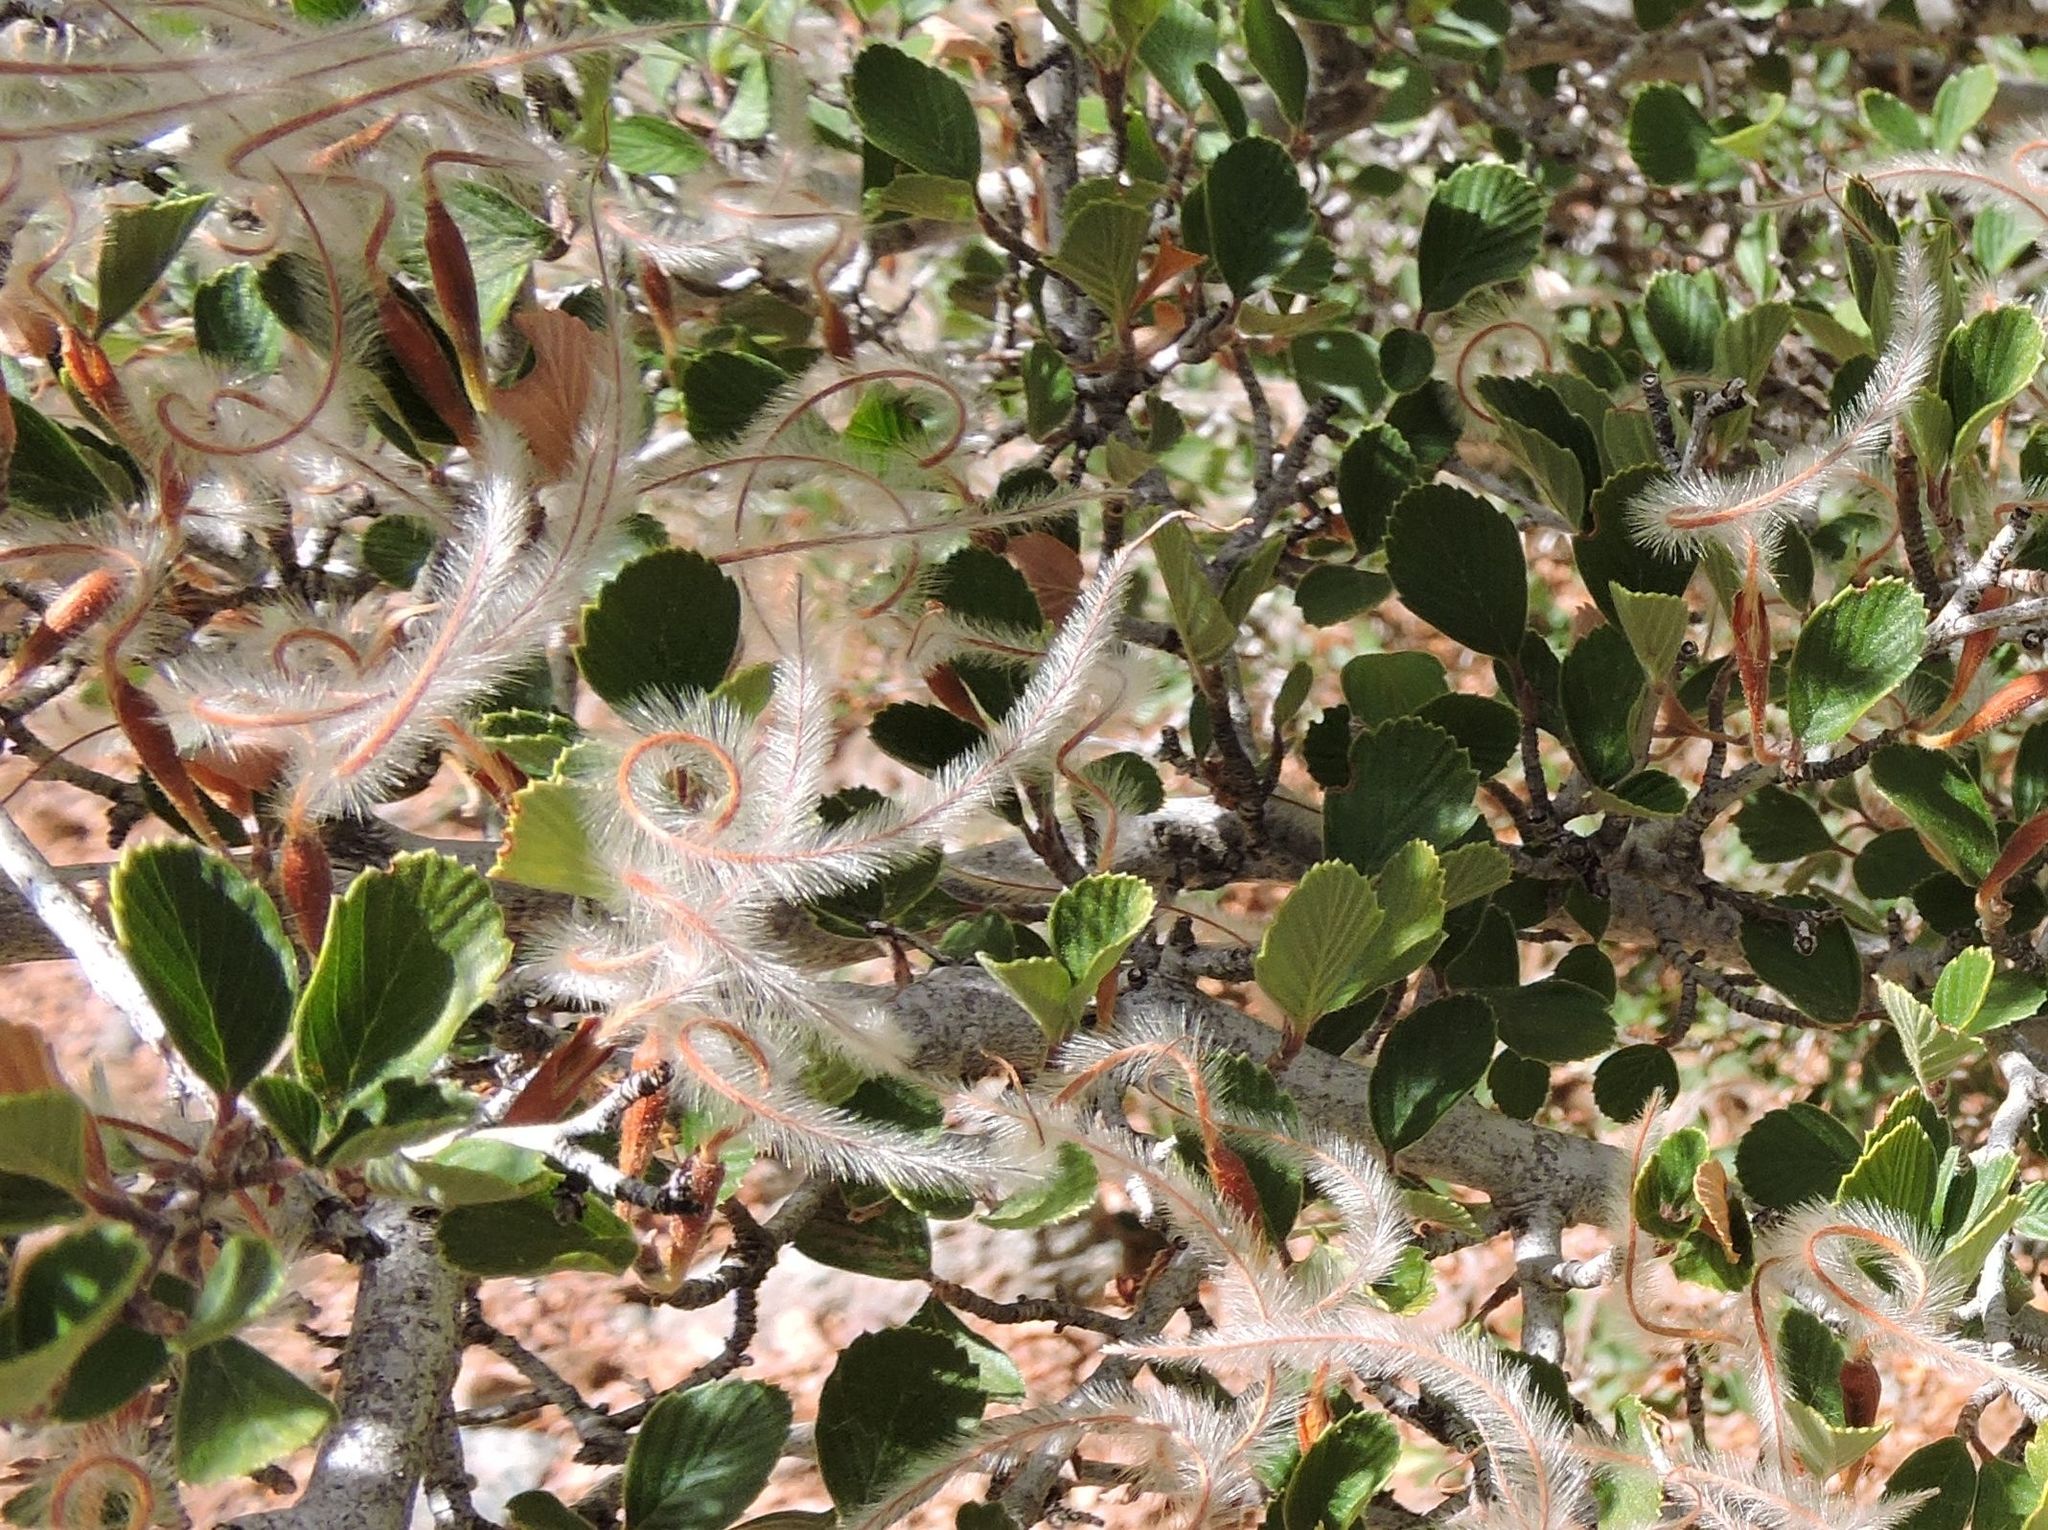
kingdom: Plantae
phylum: Tracheophyta
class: Magnoliopsida
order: Rosales
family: Rosaceae
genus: Cercocarpus
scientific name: Cercocarpus betuloides
